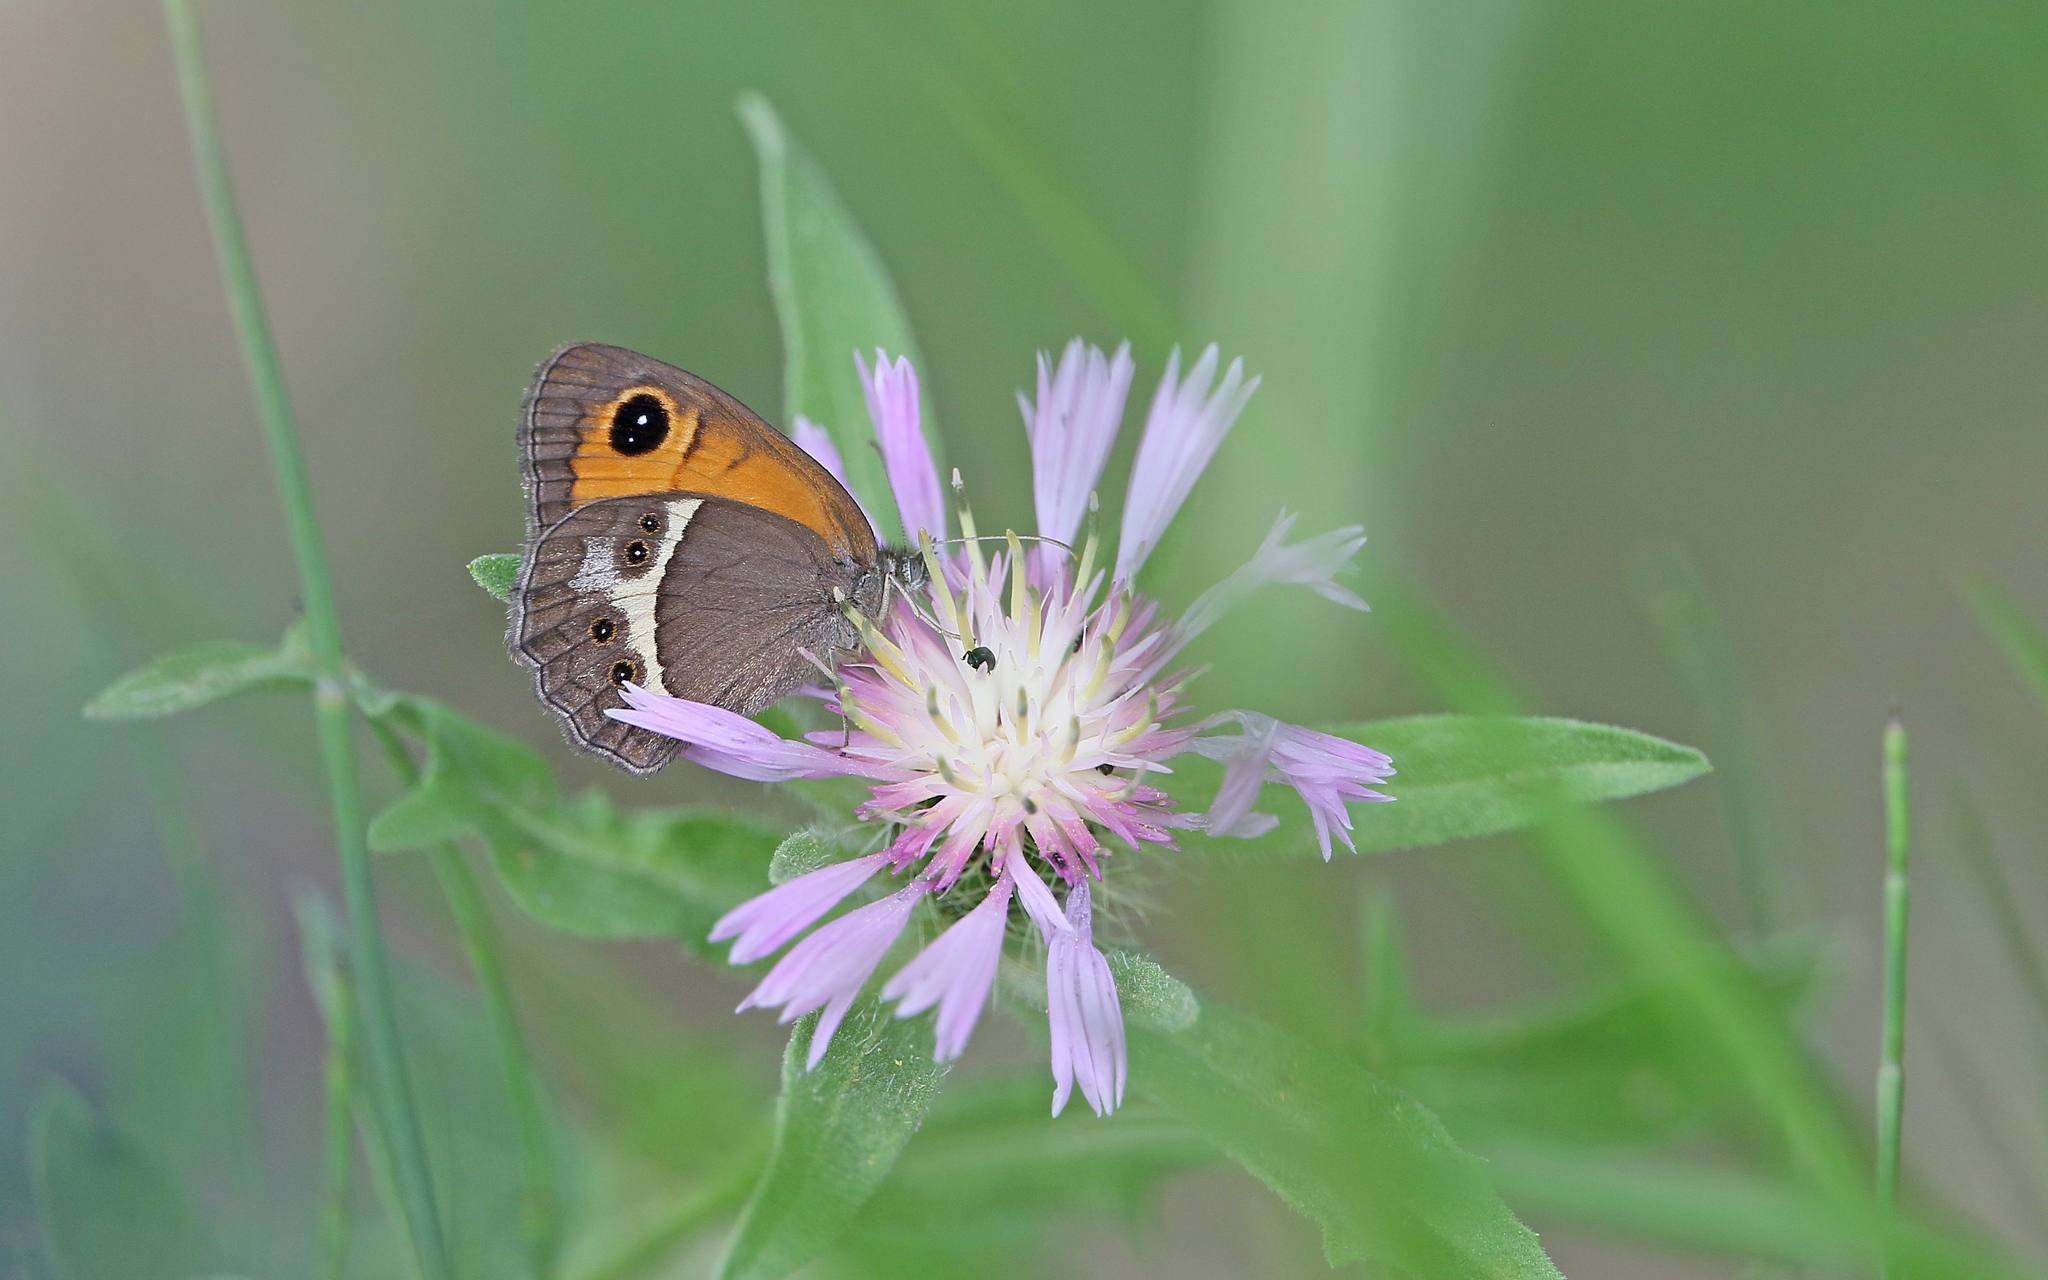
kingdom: Animalia
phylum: Arthropoda
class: Insecta
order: Lepidoptera
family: Nymphalidae
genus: Pyronia
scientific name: Pyronia bathseba
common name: Spanish gatekeeper
